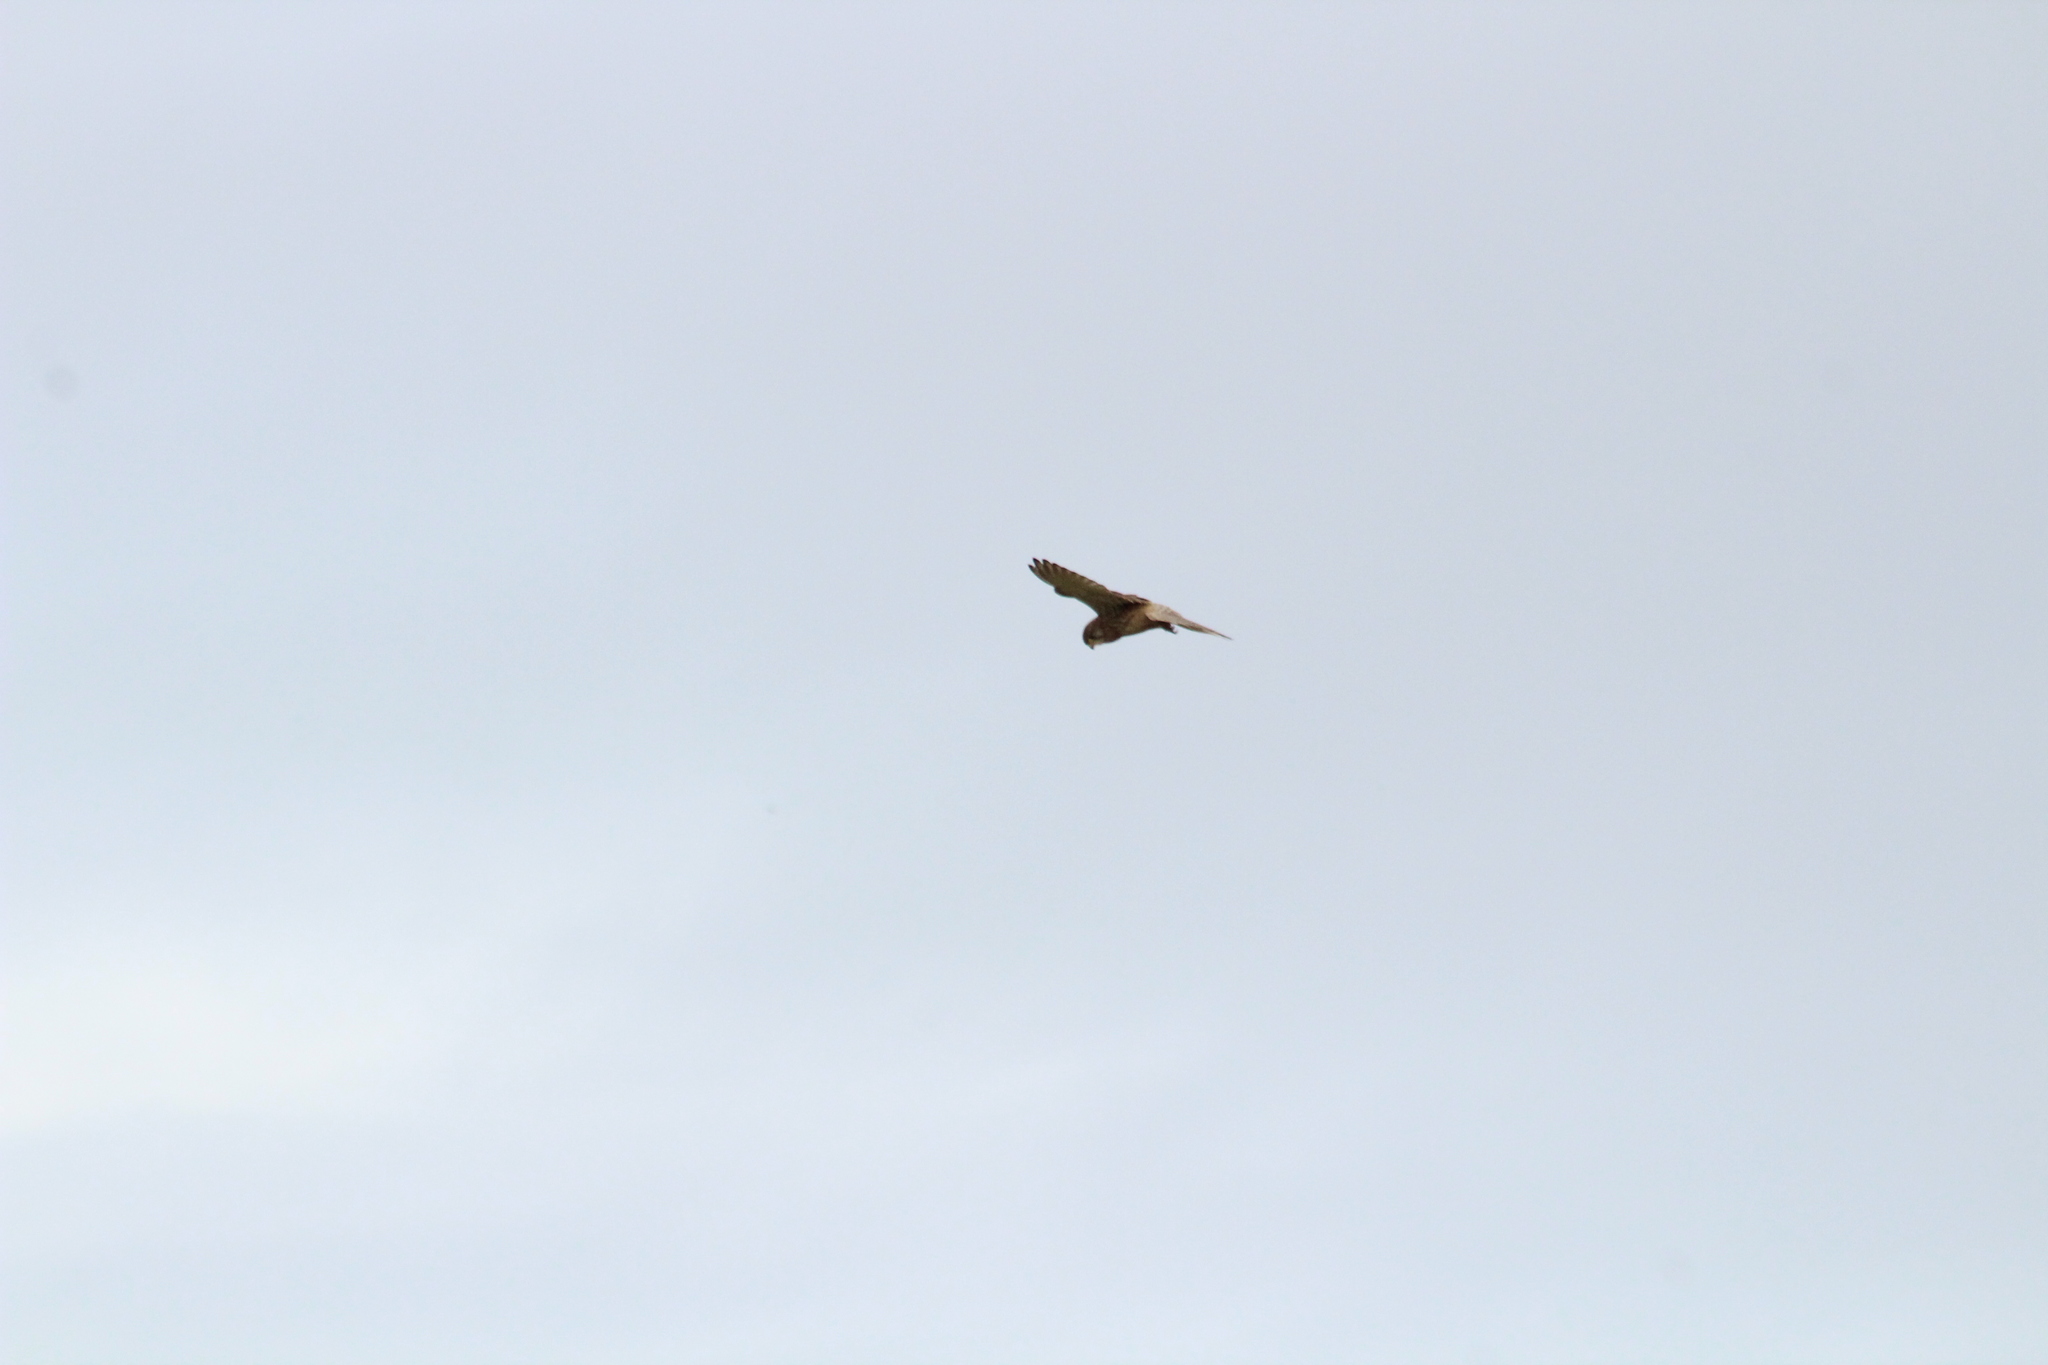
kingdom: Animalia
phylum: Chordata
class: Aves
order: Falconiformes
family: Falconidae
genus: Falco
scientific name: Falco tinnunculus
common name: Common kestrel
